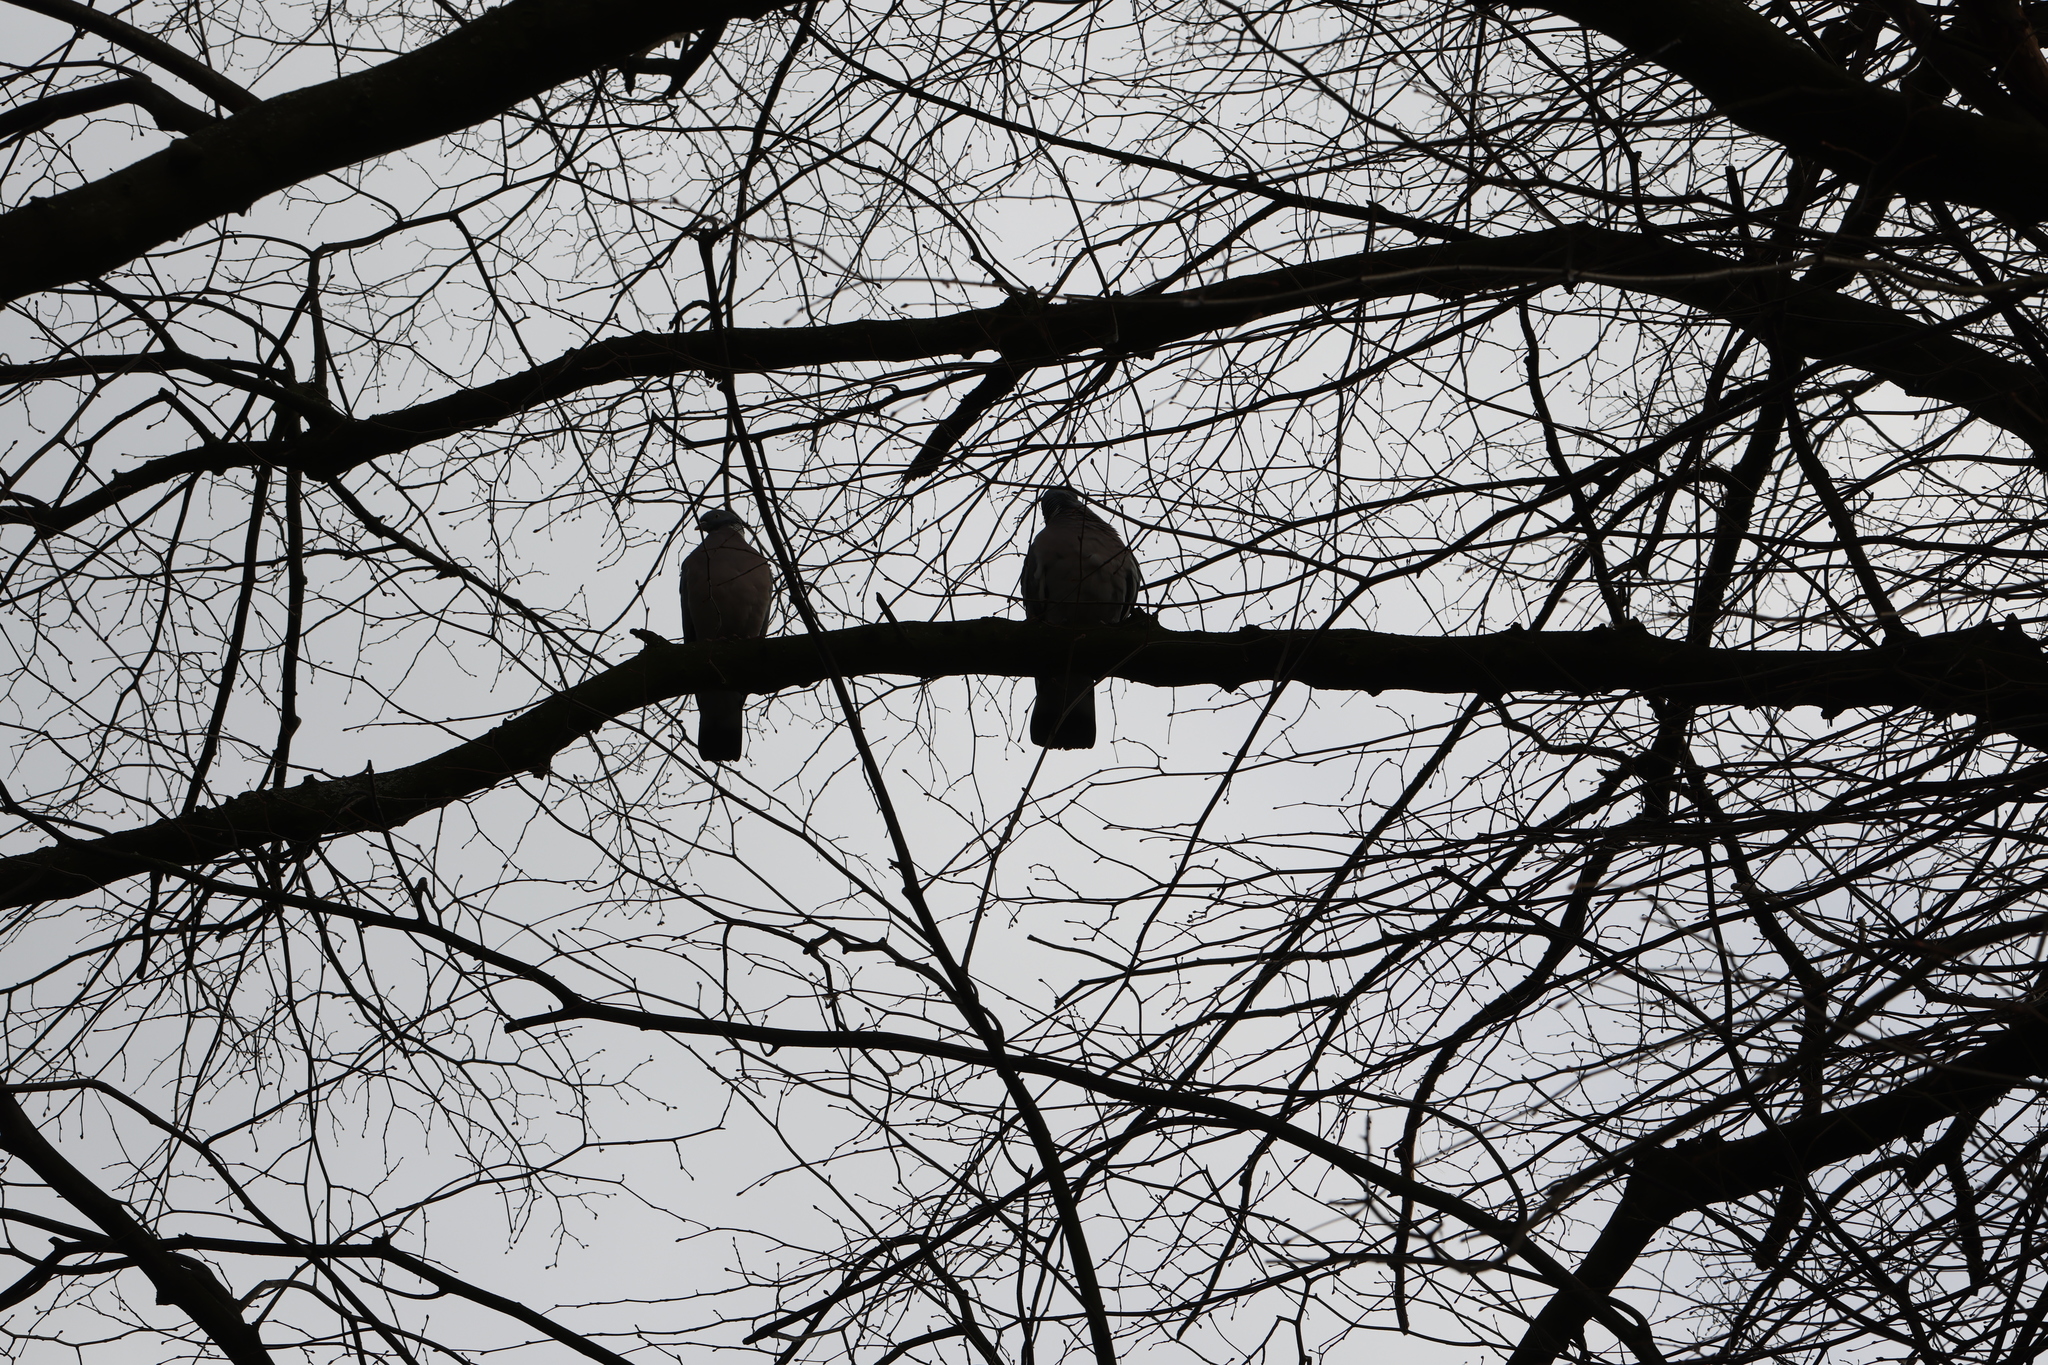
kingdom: Animalia
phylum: Chordata
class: Aves
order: Columbiformes
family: Columbidae
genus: Columba
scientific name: Columba palumbus
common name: Common wood pigeon
